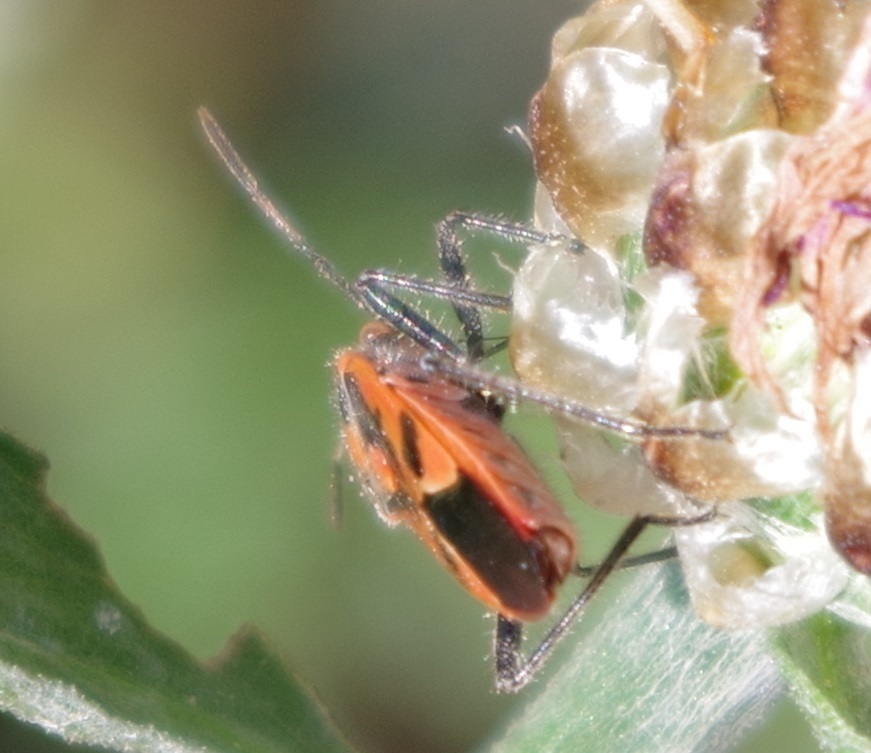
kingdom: Animalia
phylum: Arthropoda
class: Insecta
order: Hemiptera
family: Rhopalidae
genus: Corizus
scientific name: Corizus hyoscyami
